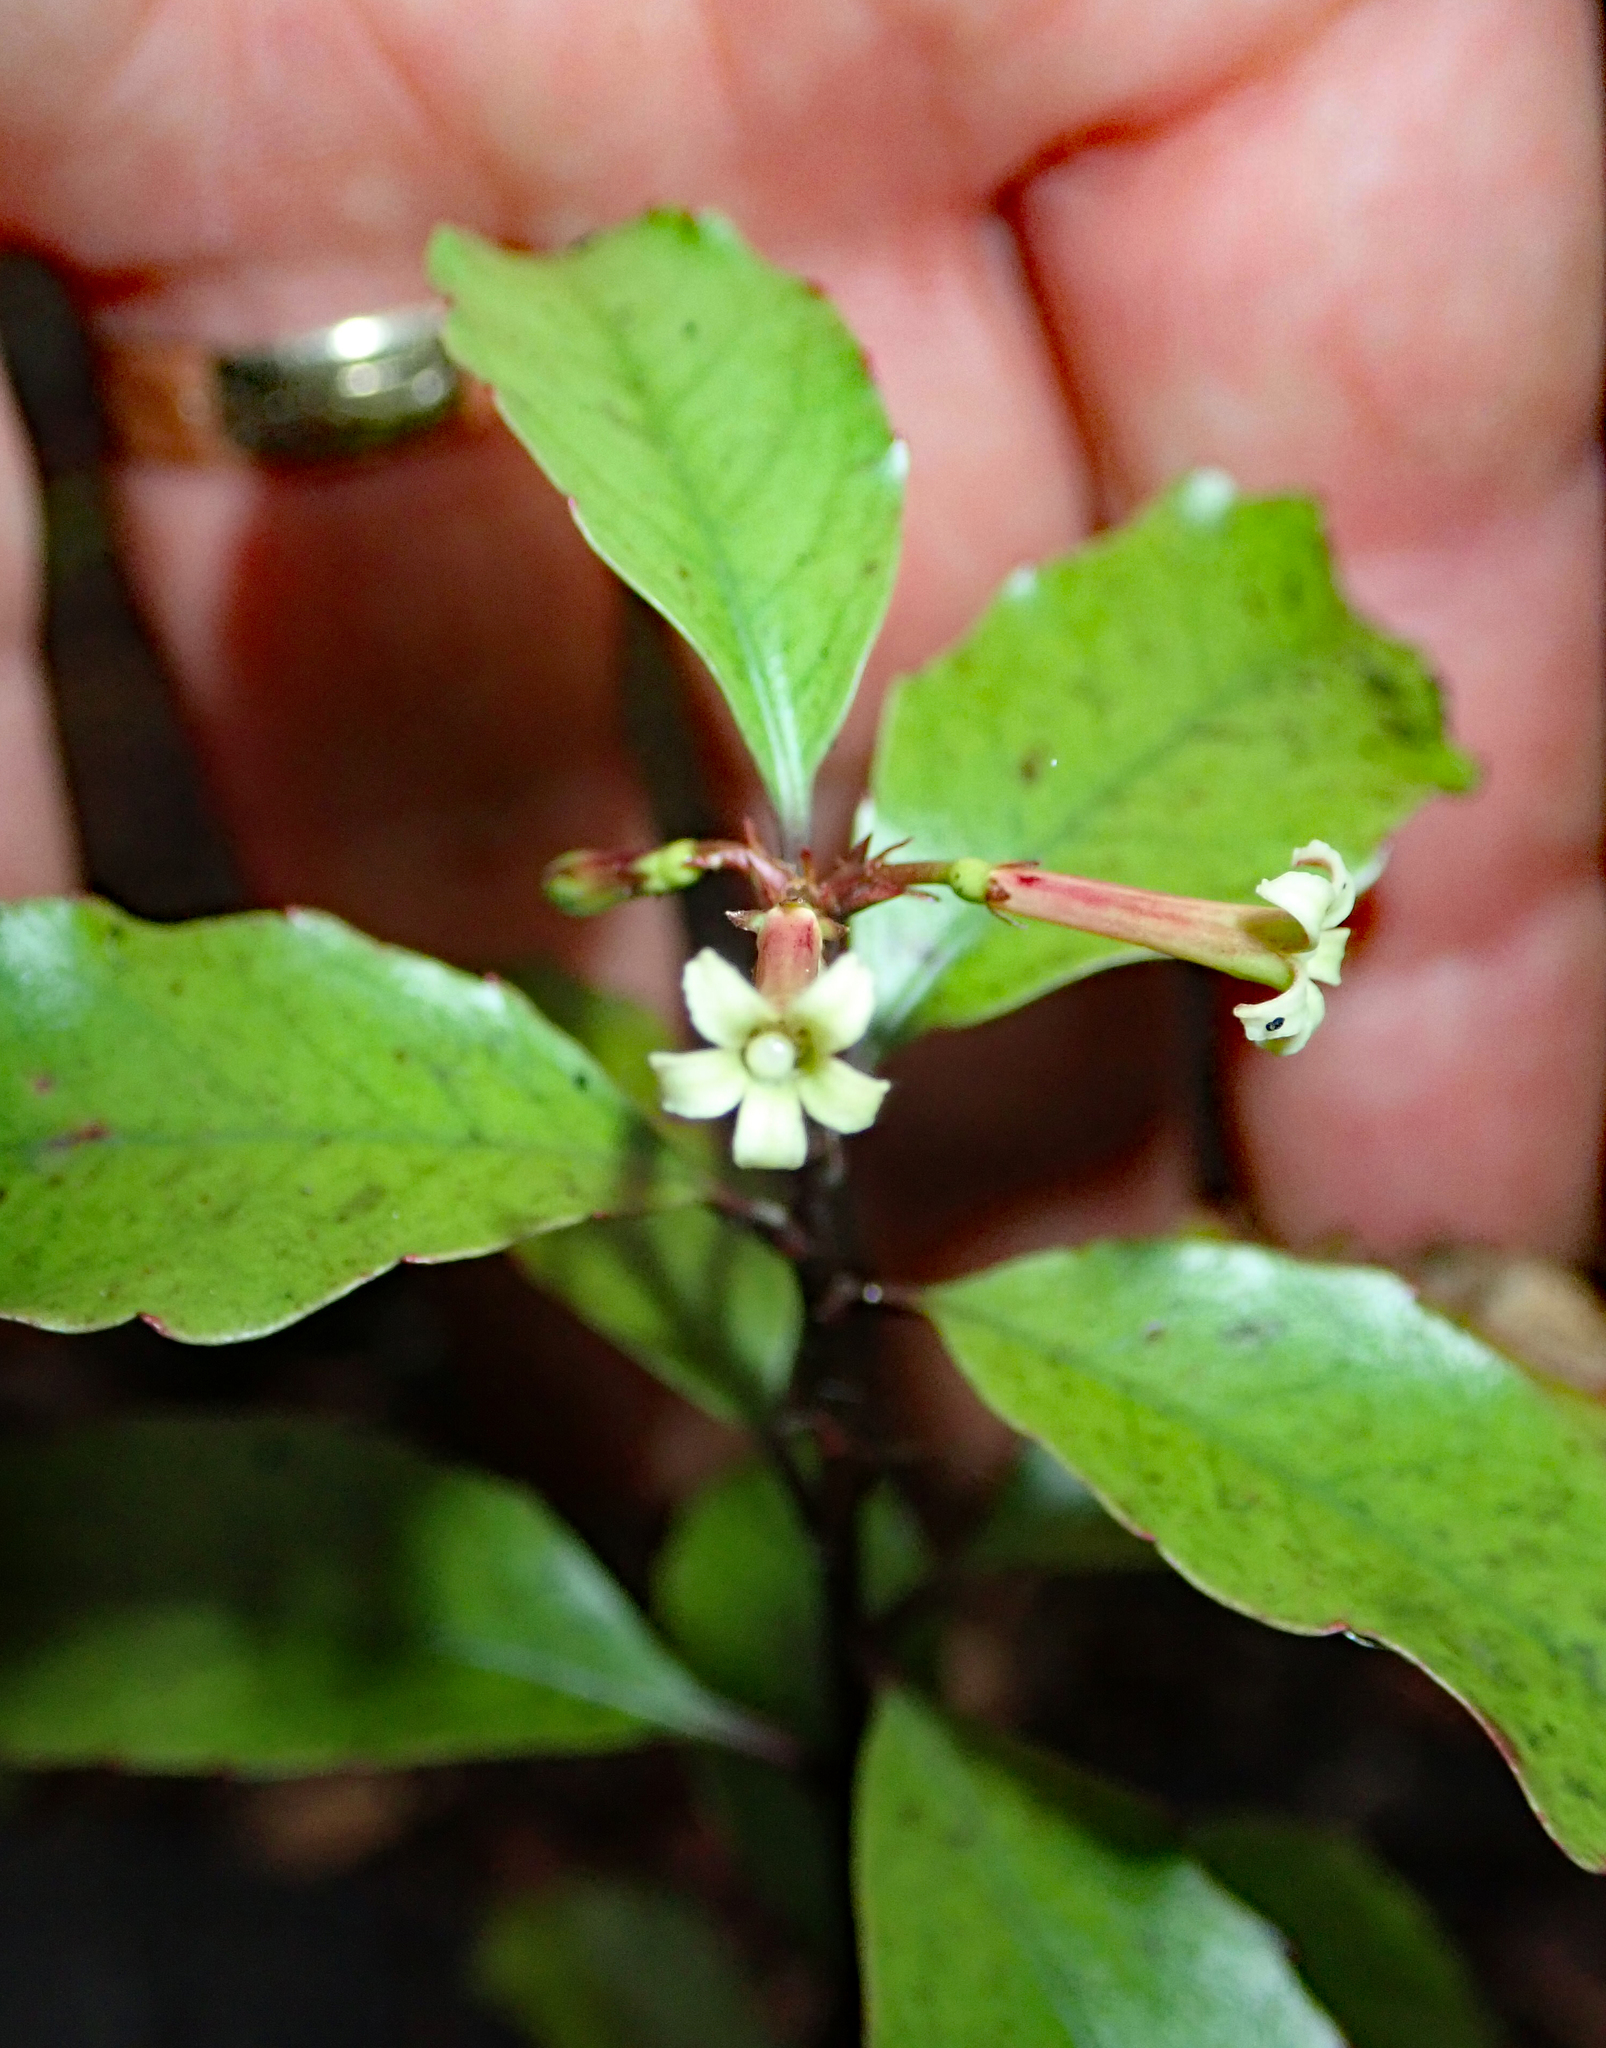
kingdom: Plantae
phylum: Tracheophyta
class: Magnoliopsida
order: Asterales
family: Alseuosmiaceae
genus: Alseuosmia
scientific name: Alseuosmia banksii
